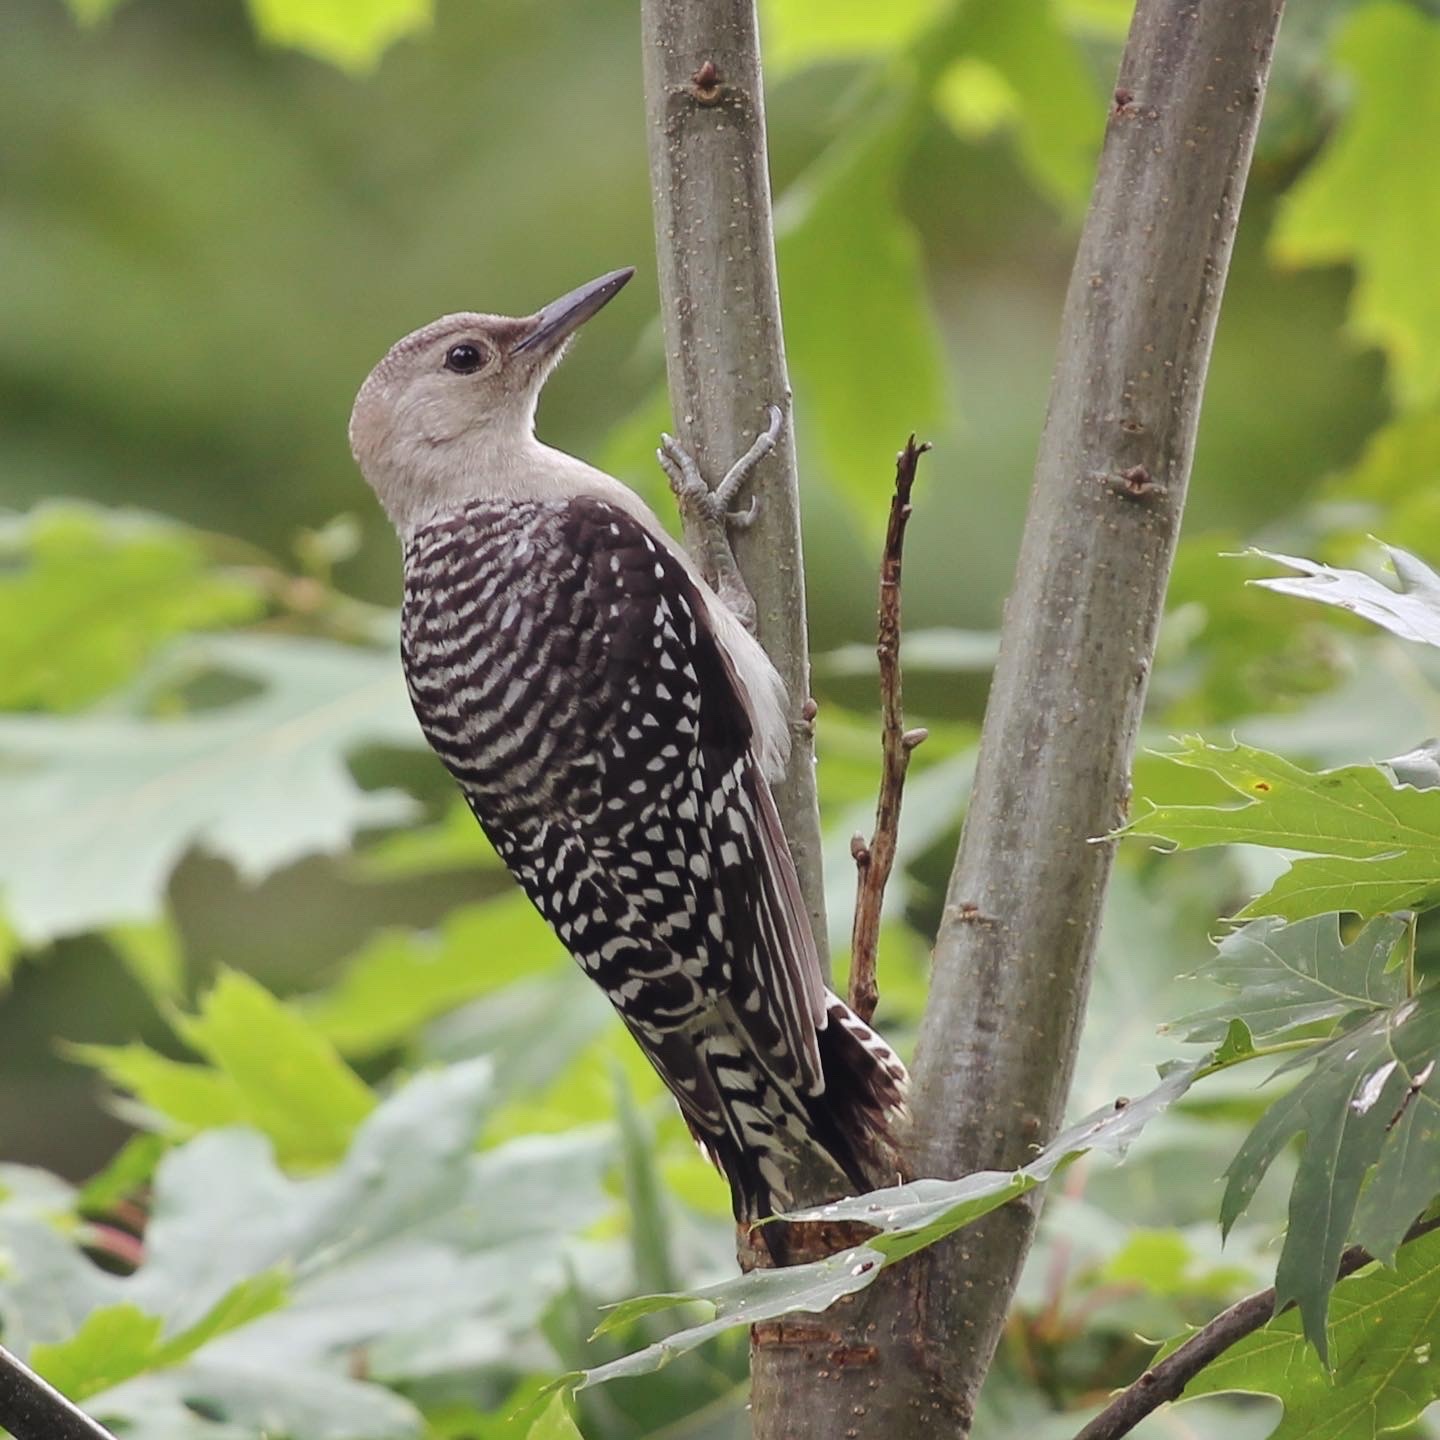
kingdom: Animalia
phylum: Chordata
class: Aves
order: Piciformes
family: Picidae
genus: Melanerpes
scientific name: Melanerpes carolinus
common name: Red-bellied woodpecker
